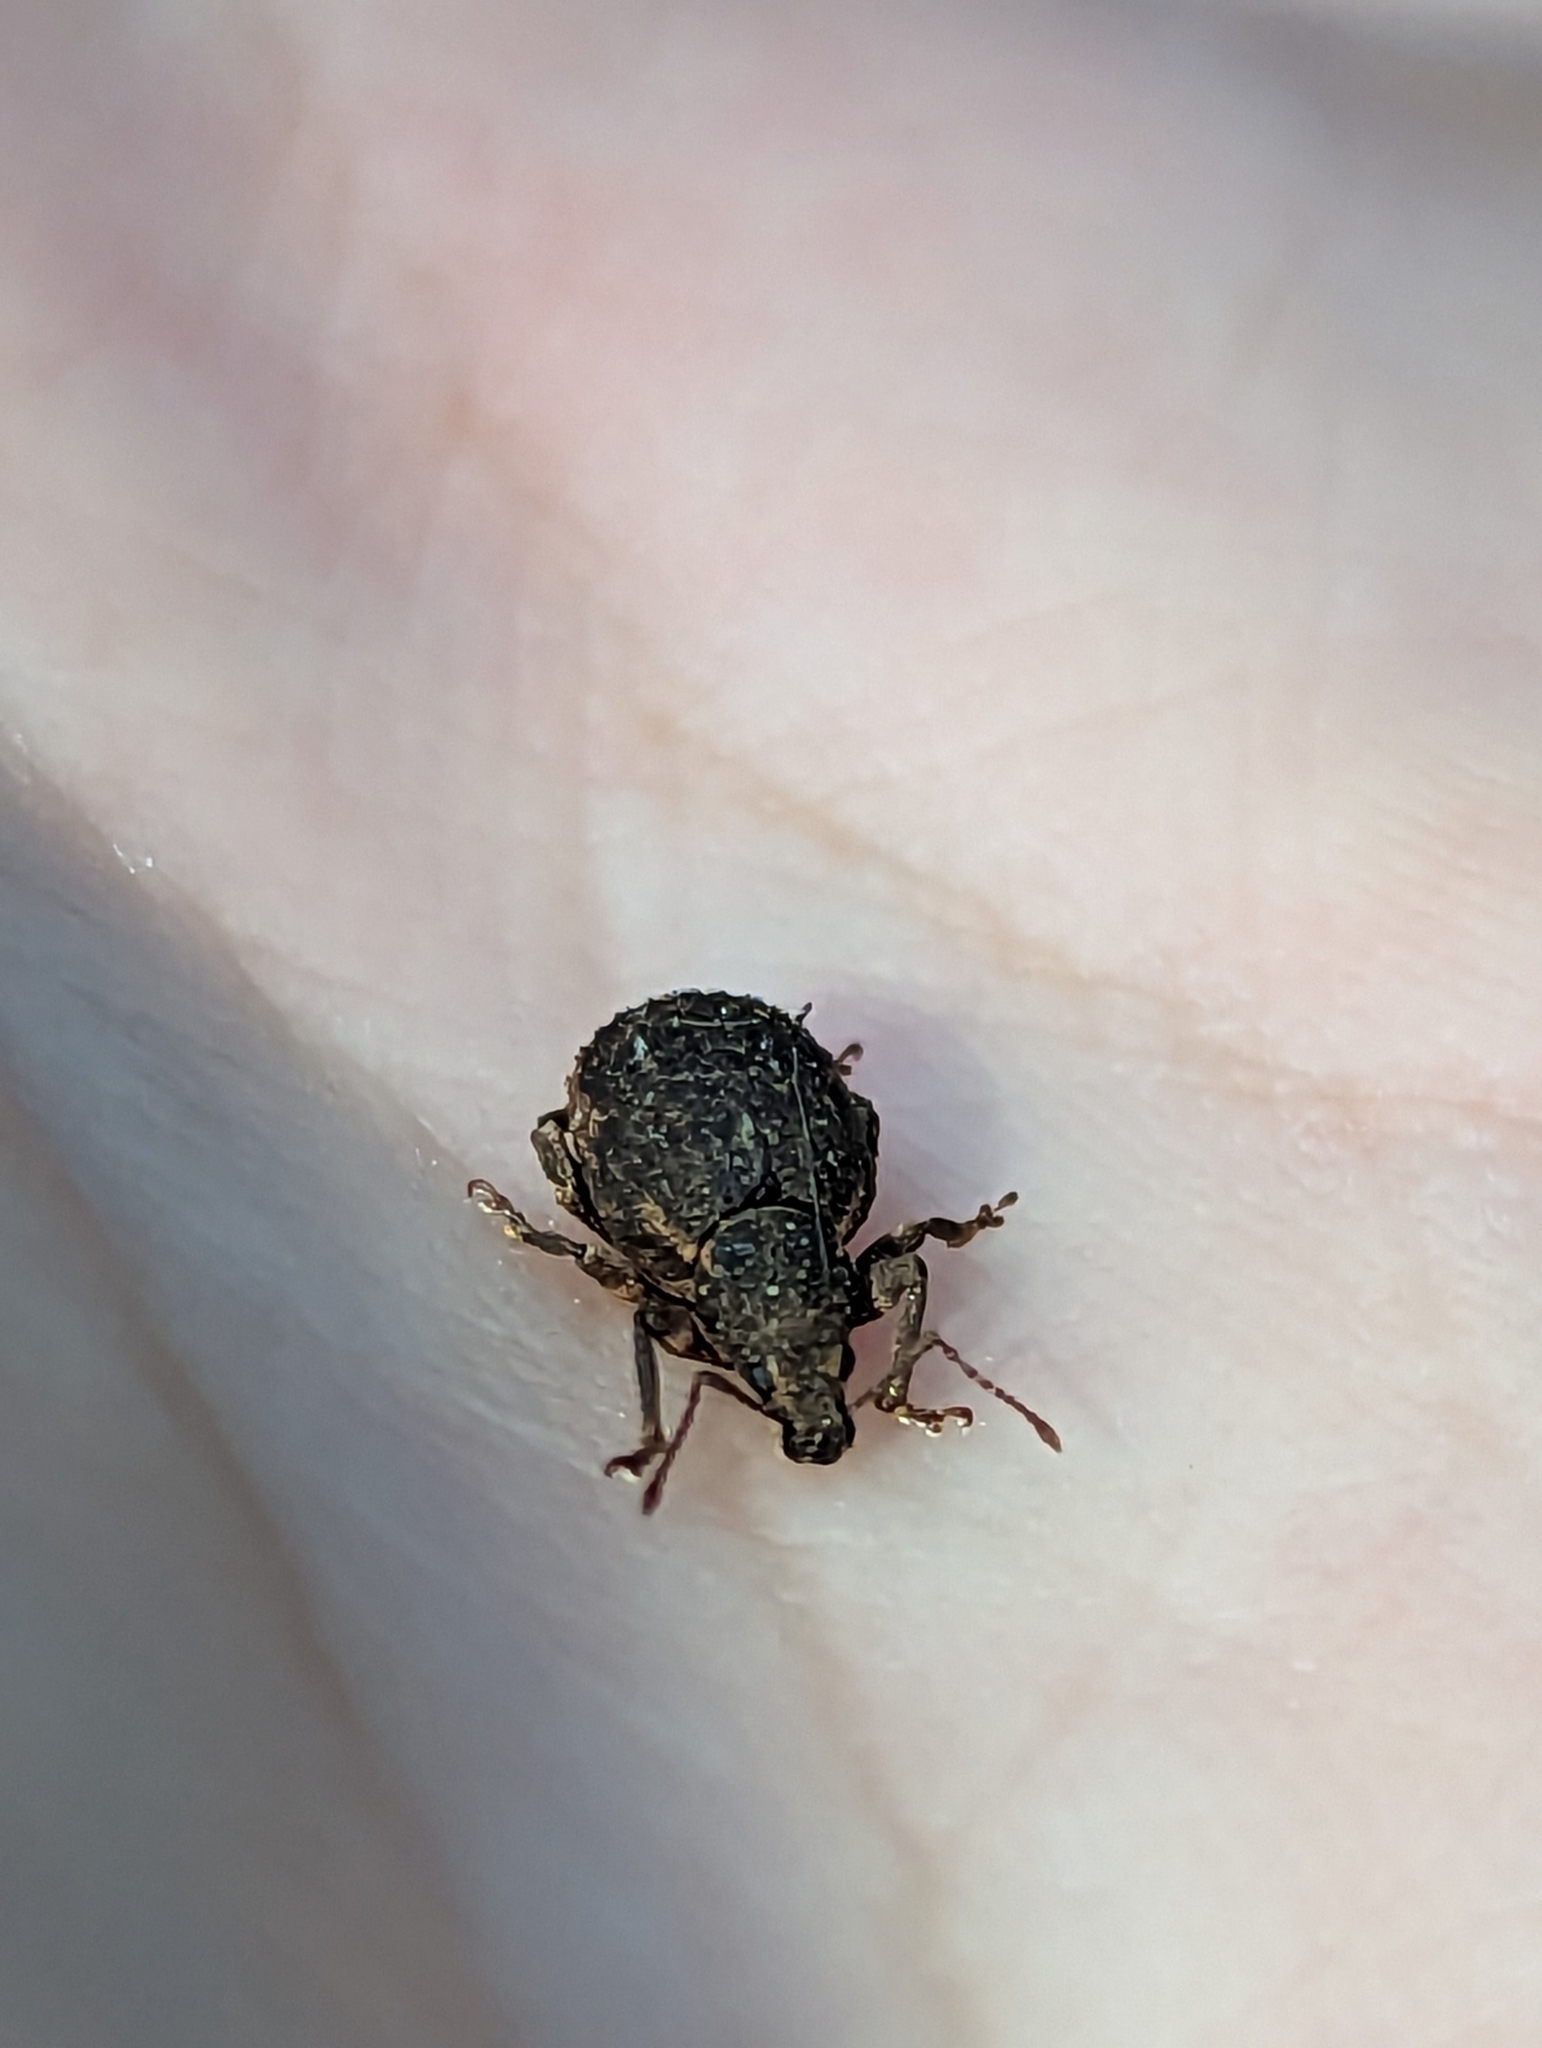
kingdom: Animalia
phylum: Arthropoda
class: Insecta
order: Coleoptera
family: Curculionidae
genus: Nemocestes
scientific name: Nemocestes horni
